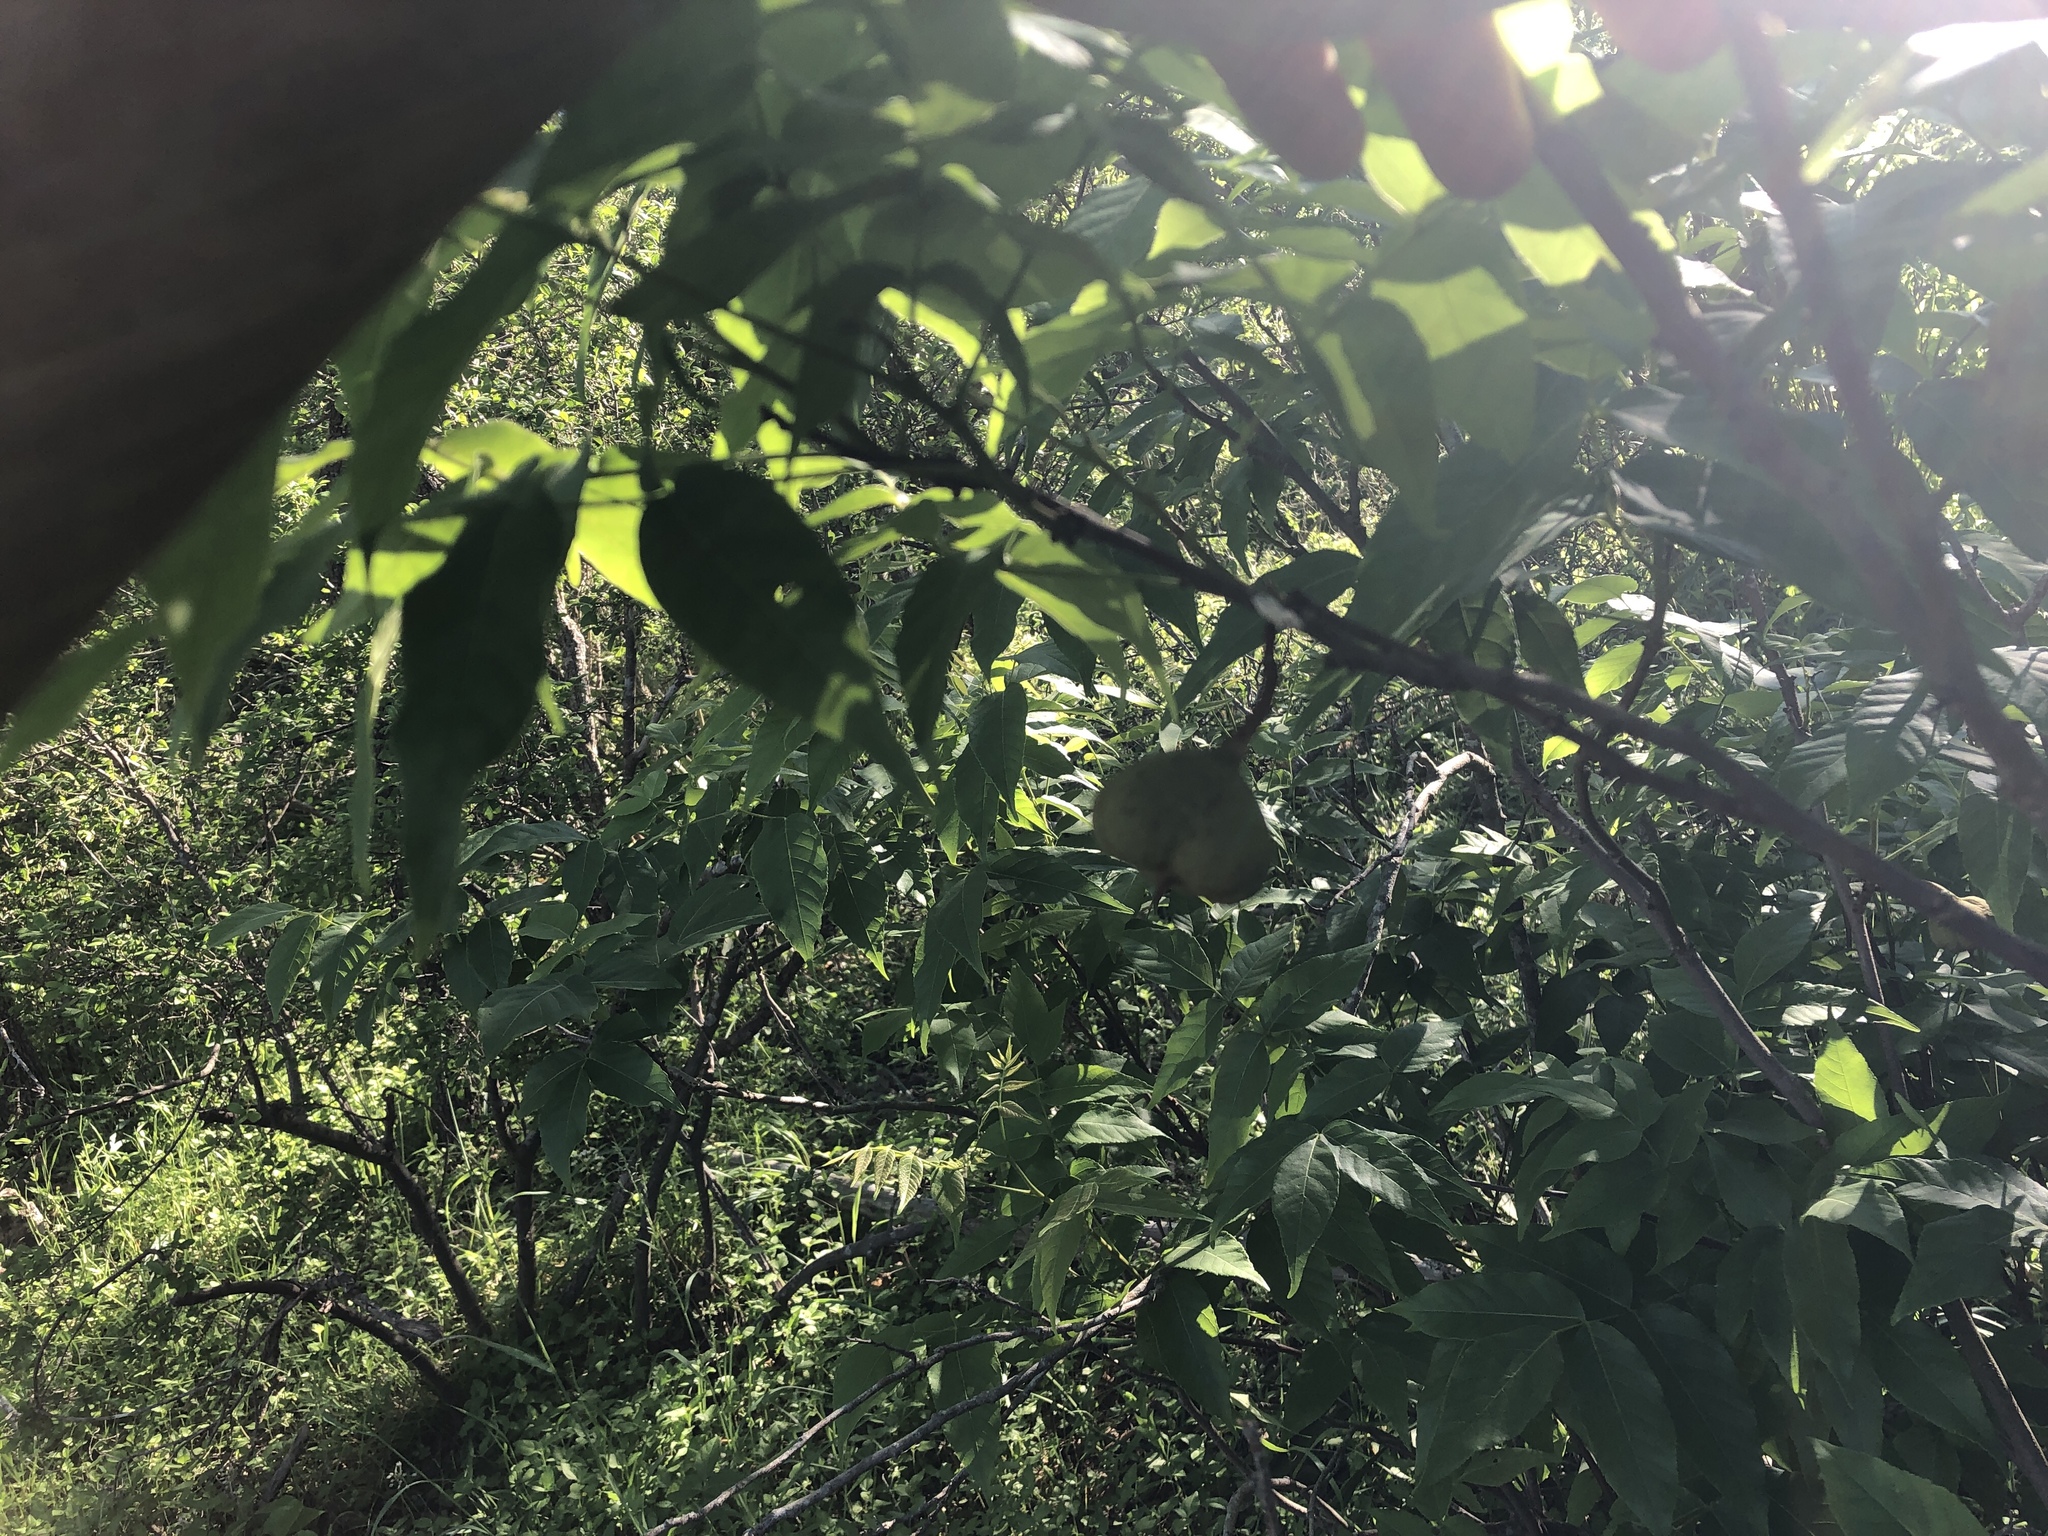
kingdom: Plantae
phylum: Tracheophyta
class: Magnoliopsida
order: Sapindales
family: Sapindaceae
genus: Ungnadia
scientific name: Ungnadia speciosa
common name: Texas-buckeye
